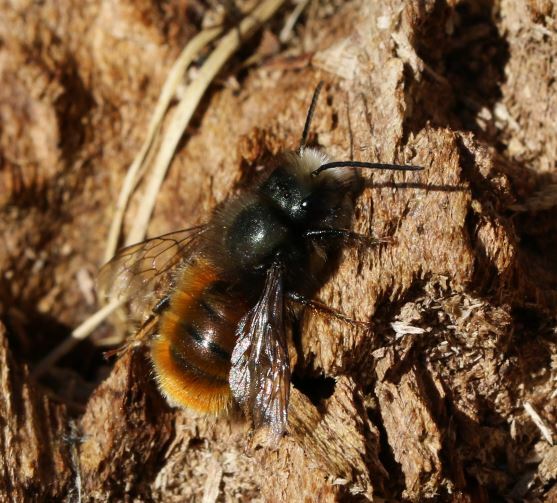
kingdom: Animalia
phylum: Arthropoda
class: Insecta
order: Hymenoptera
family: Megachilidae
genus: Osmia
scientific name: Osmia cornuta
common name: Mason bee
